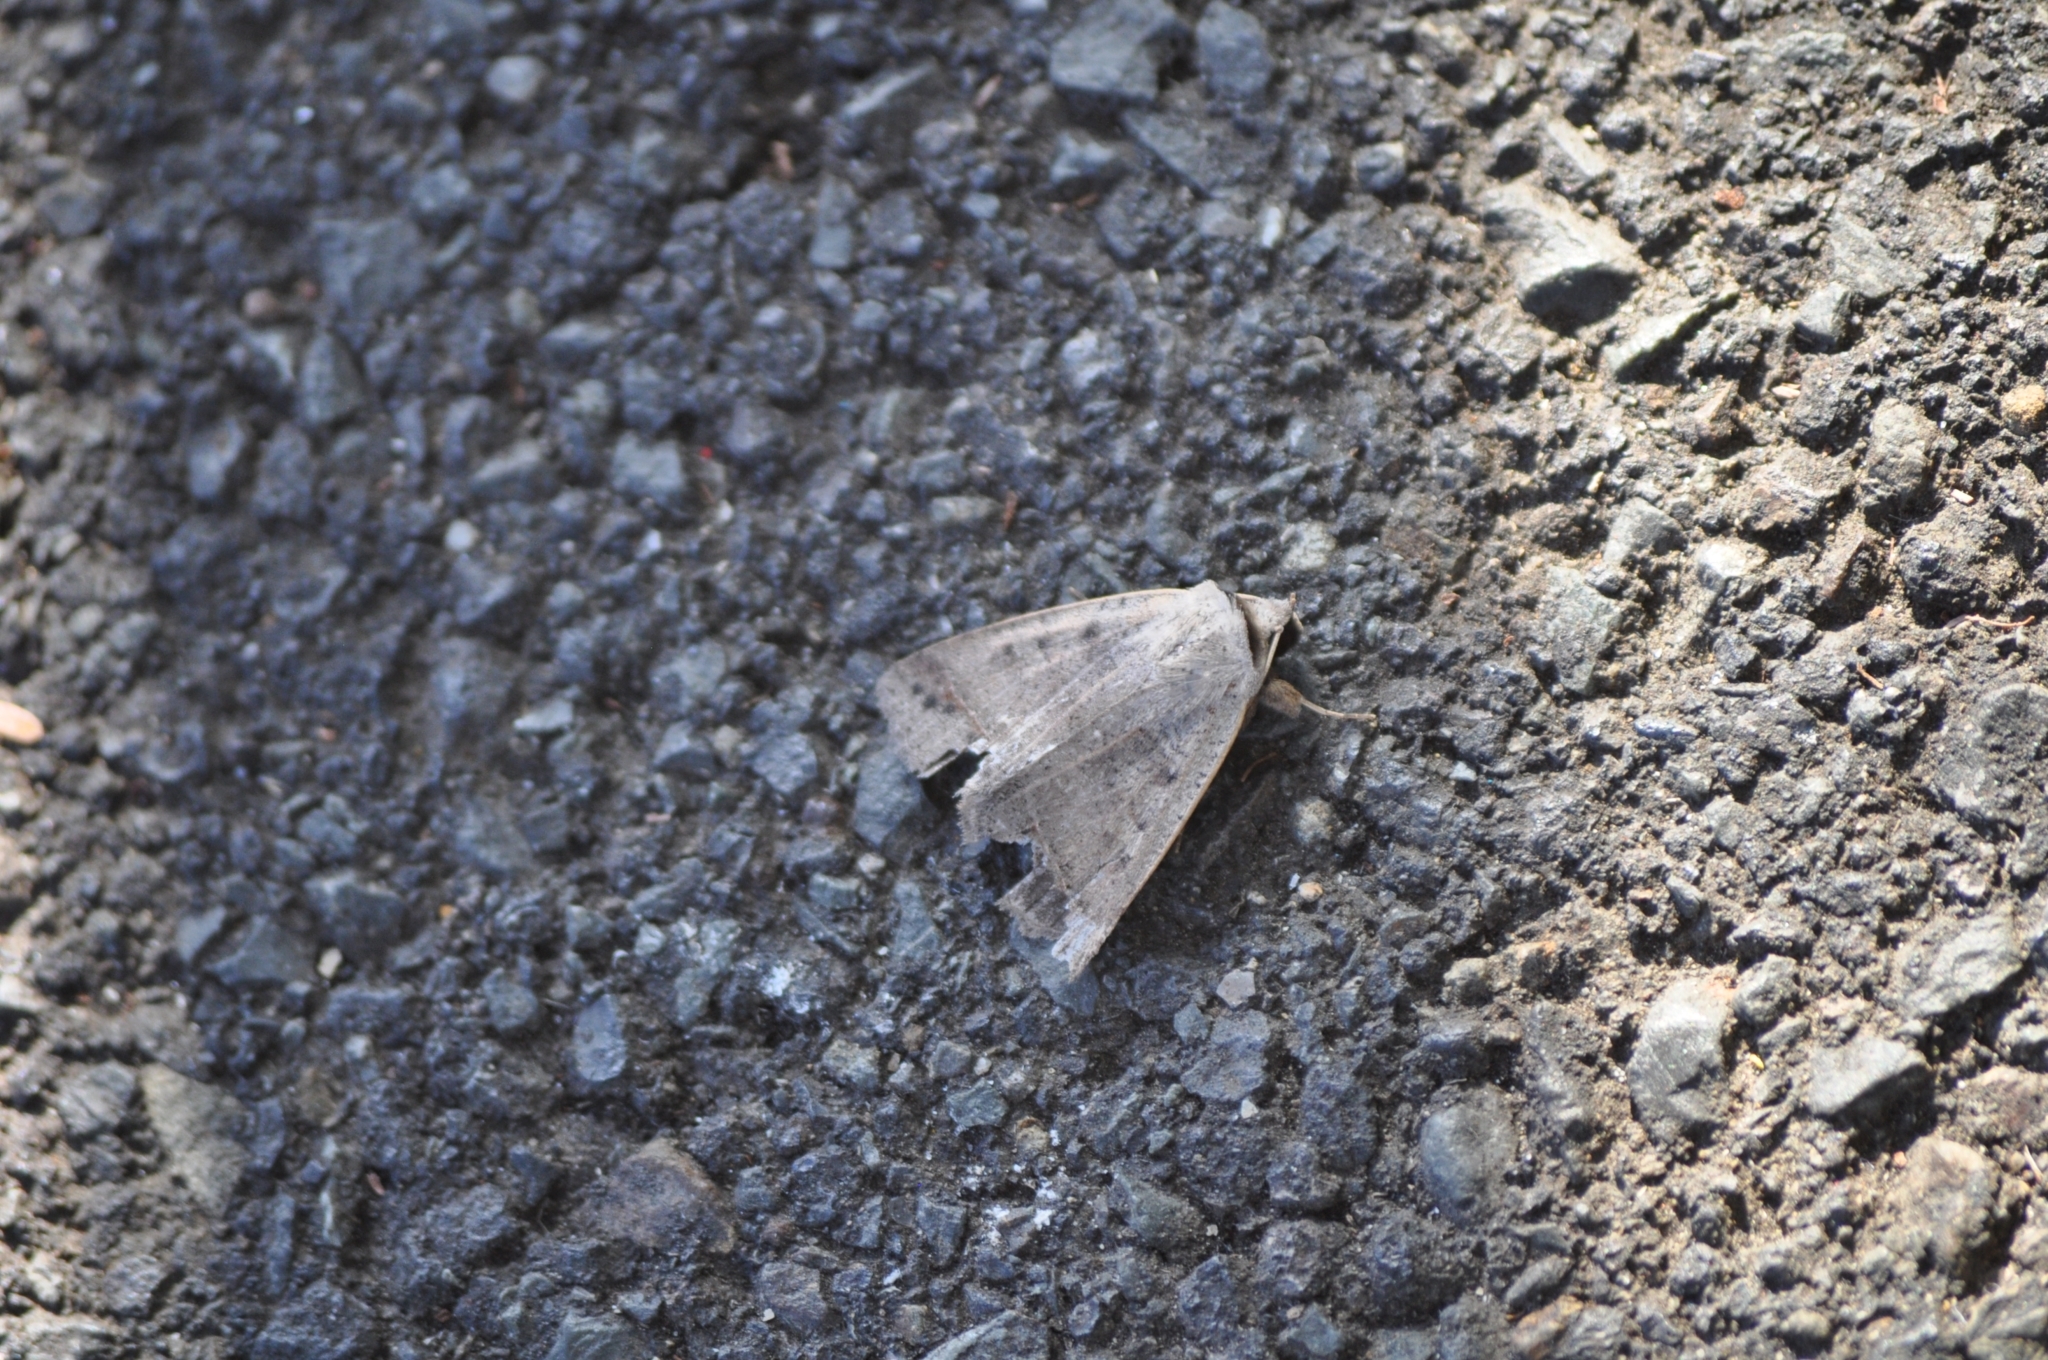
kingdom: Animalia
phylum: Arthropoda
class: Insecta
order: Lepidoptera
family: Erebidae
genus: Pantydia
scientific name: Pantydia sparsa
